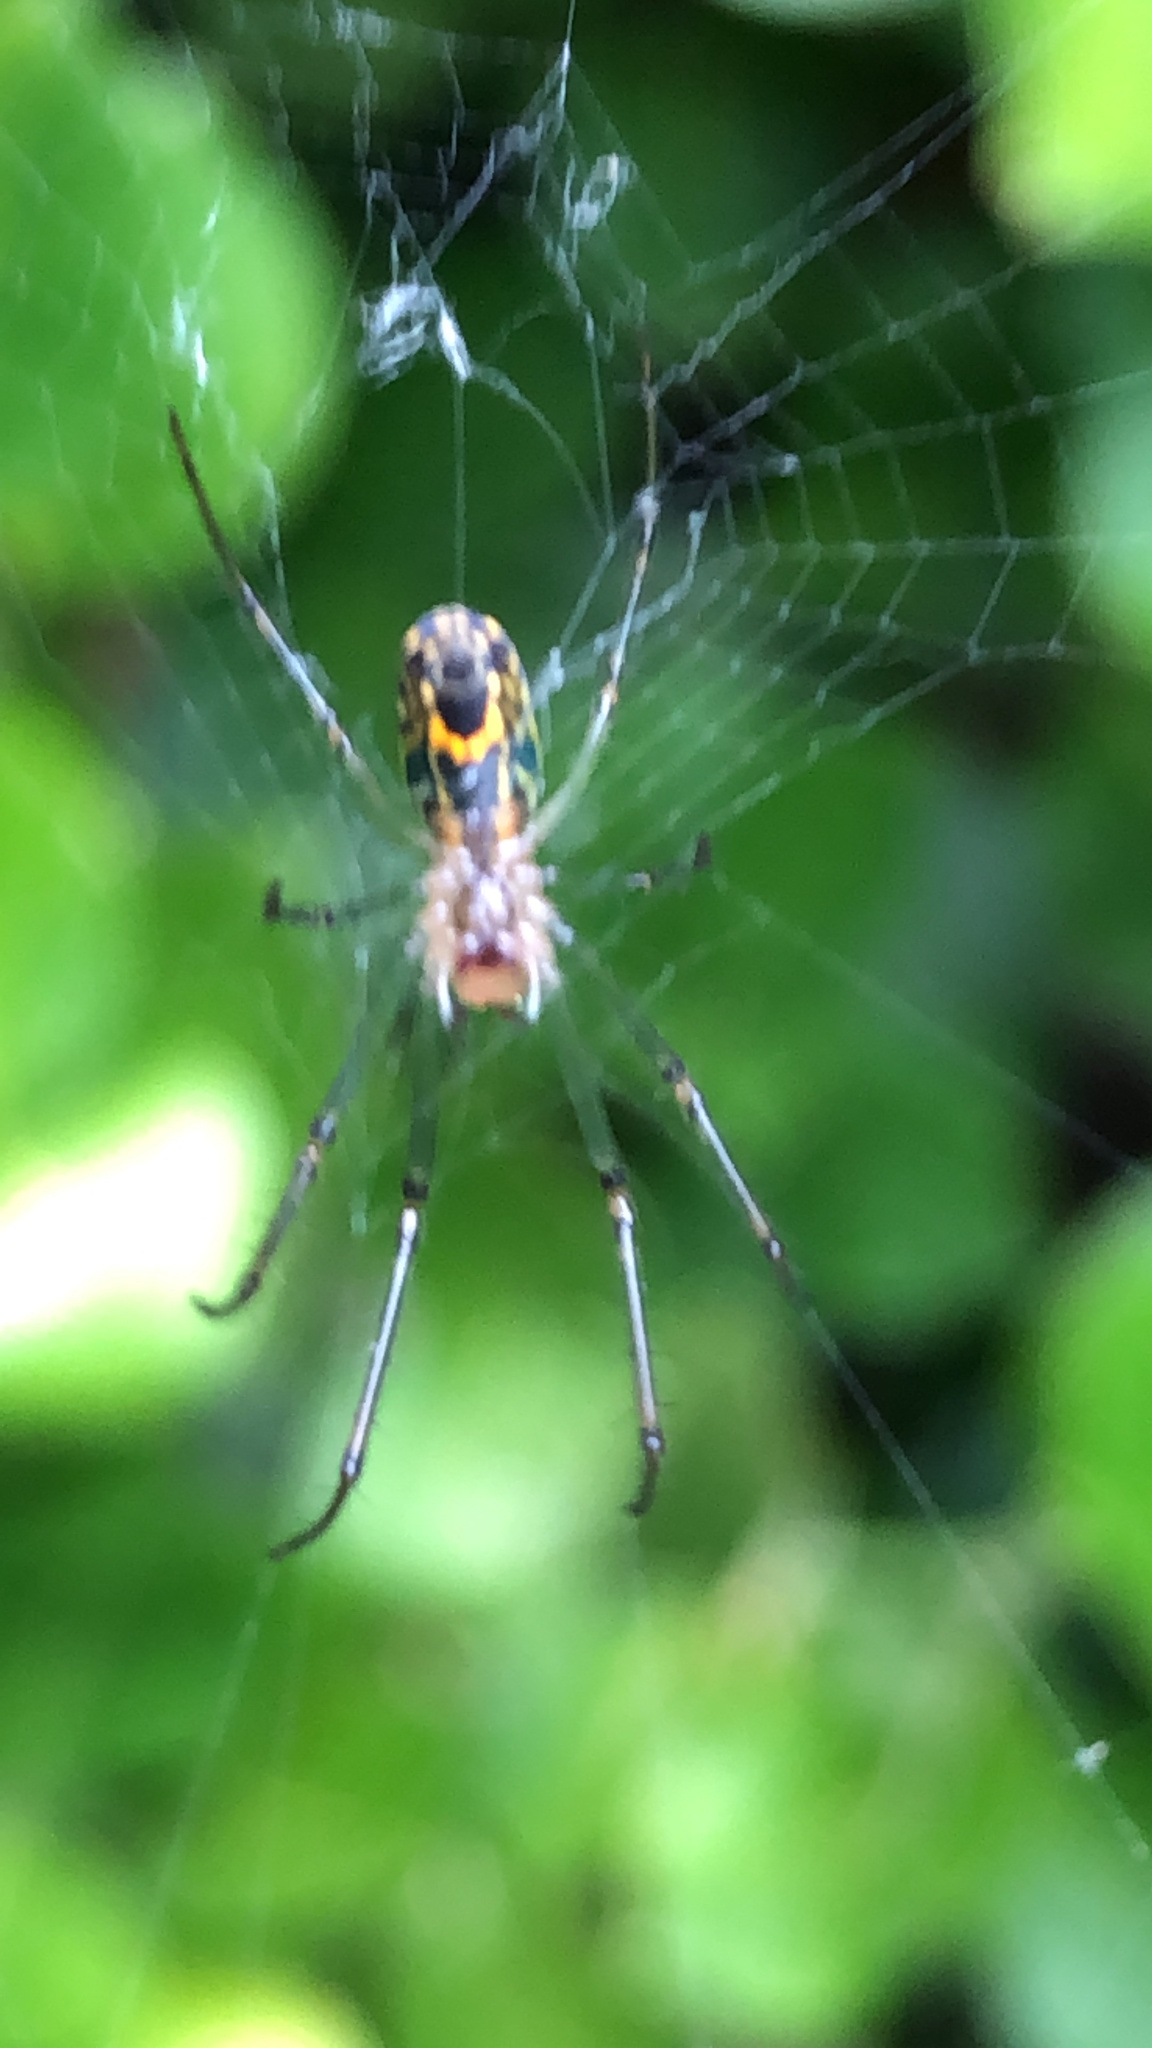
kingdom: Animalia
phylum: Arthropoda
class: Arachnida
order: Araneae
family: Tetragnathidae
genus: Leucauge
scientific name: Leucauge venusta
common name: Longjawed orb weavers
